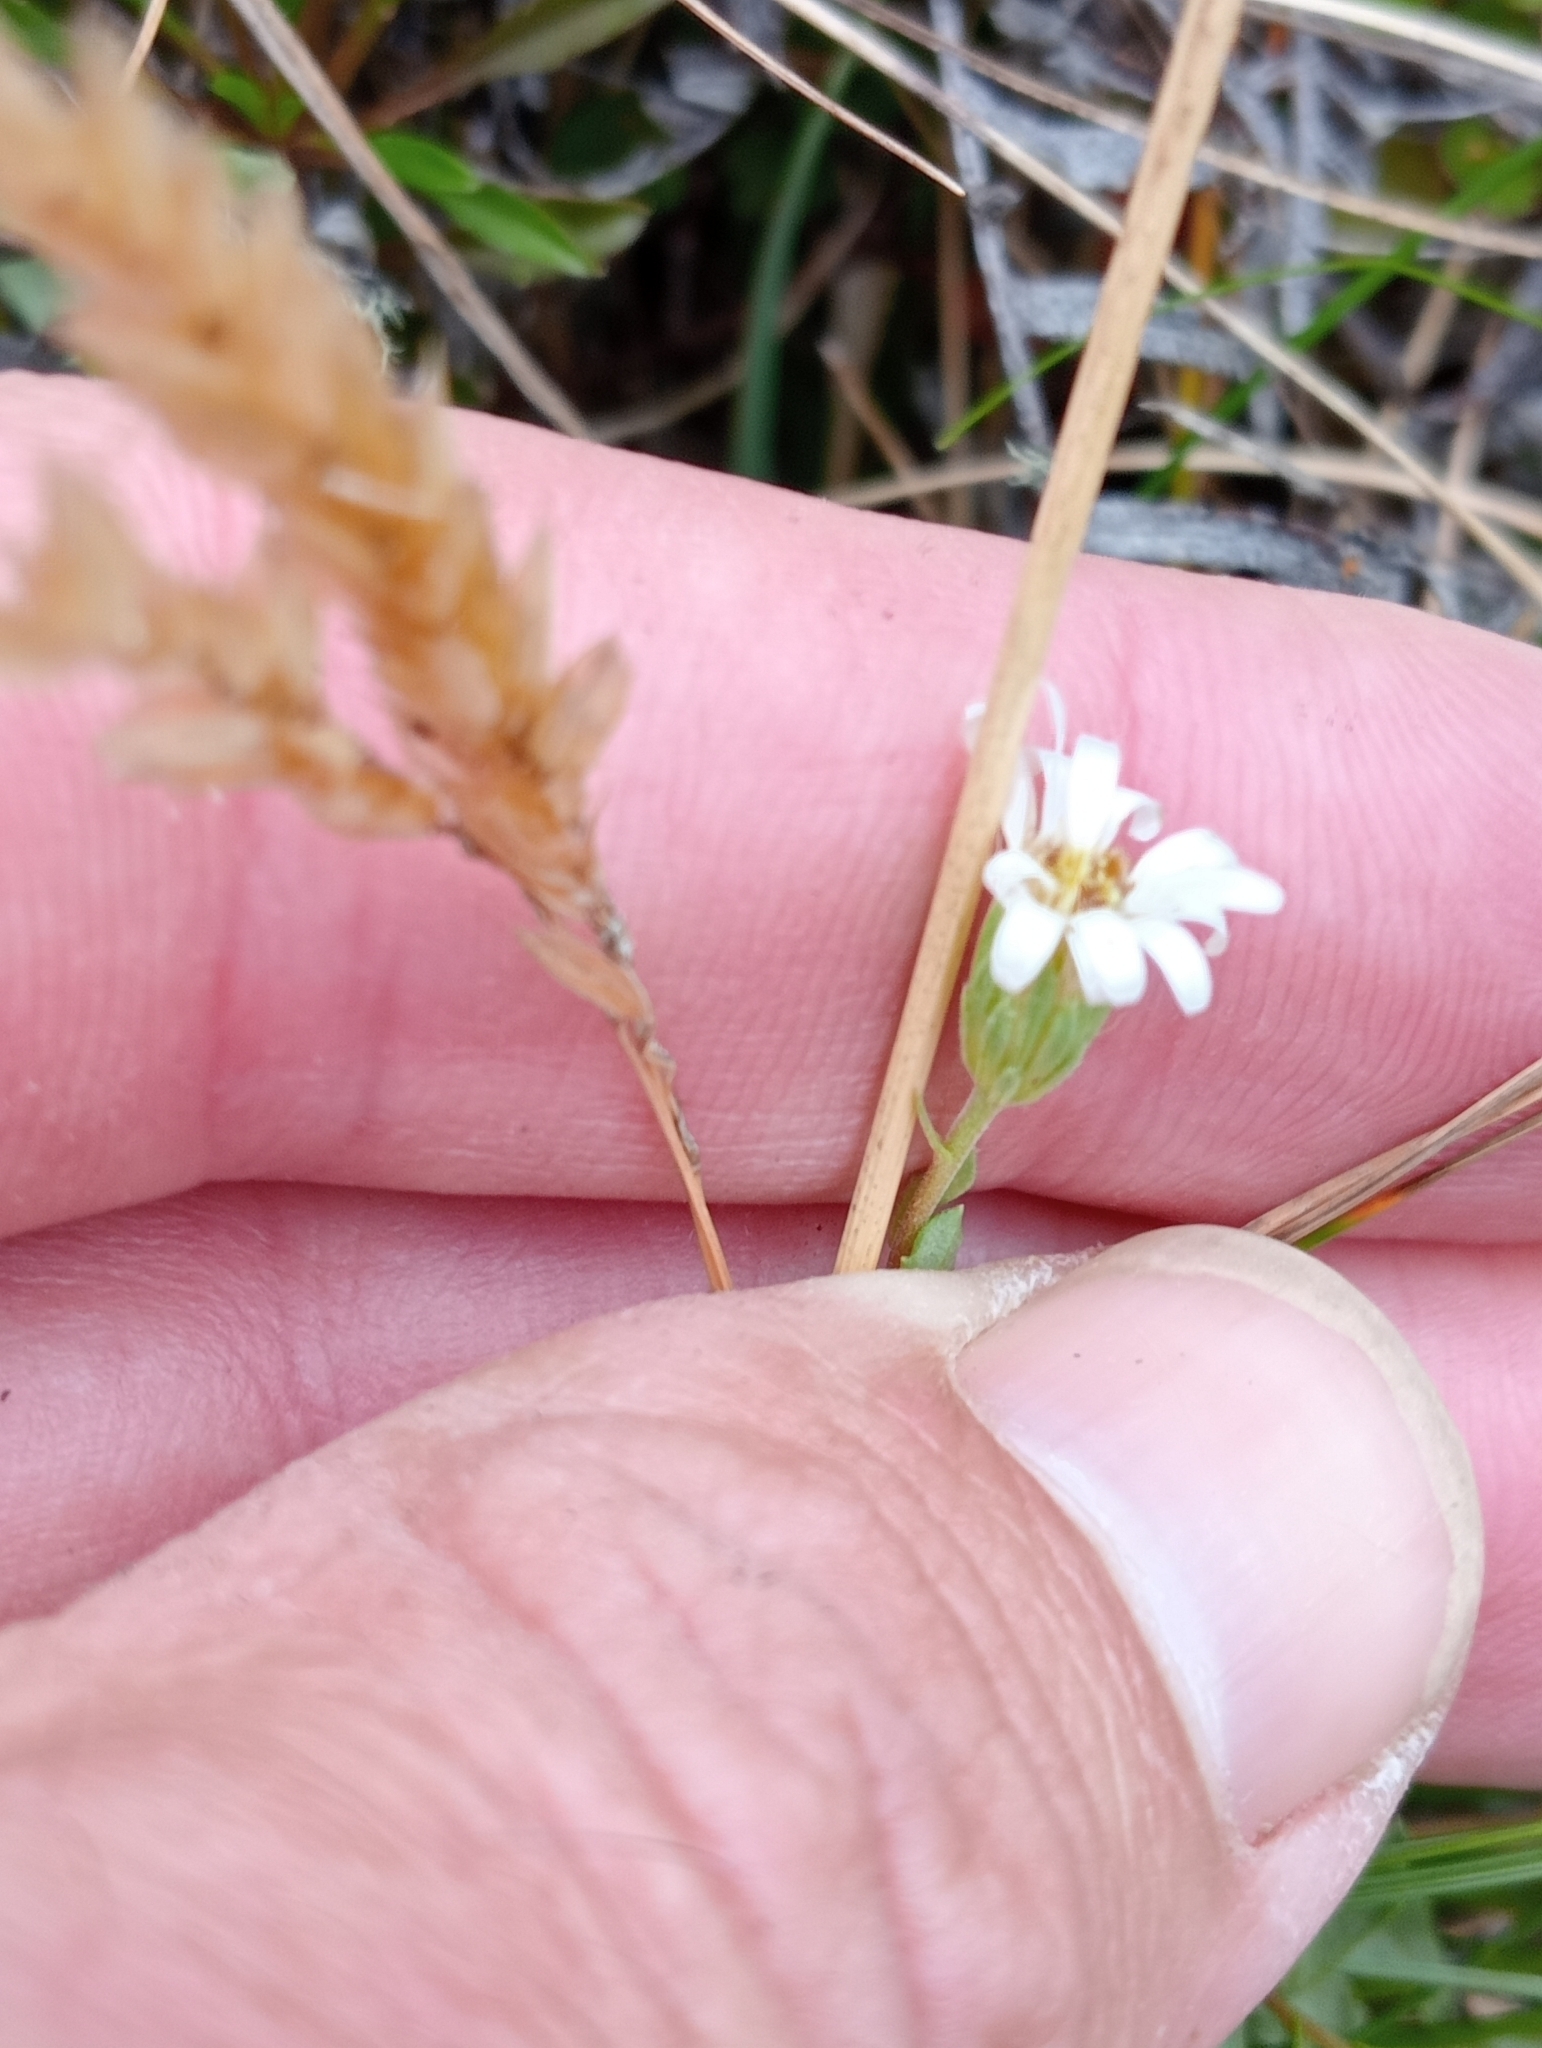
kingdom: Plantae
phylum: Tracheophyta
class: Magnoliopsida
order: Asterales
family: Asteraceae
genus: Vittadinia
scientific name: Vittadinia australis
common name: White fuzzweed
